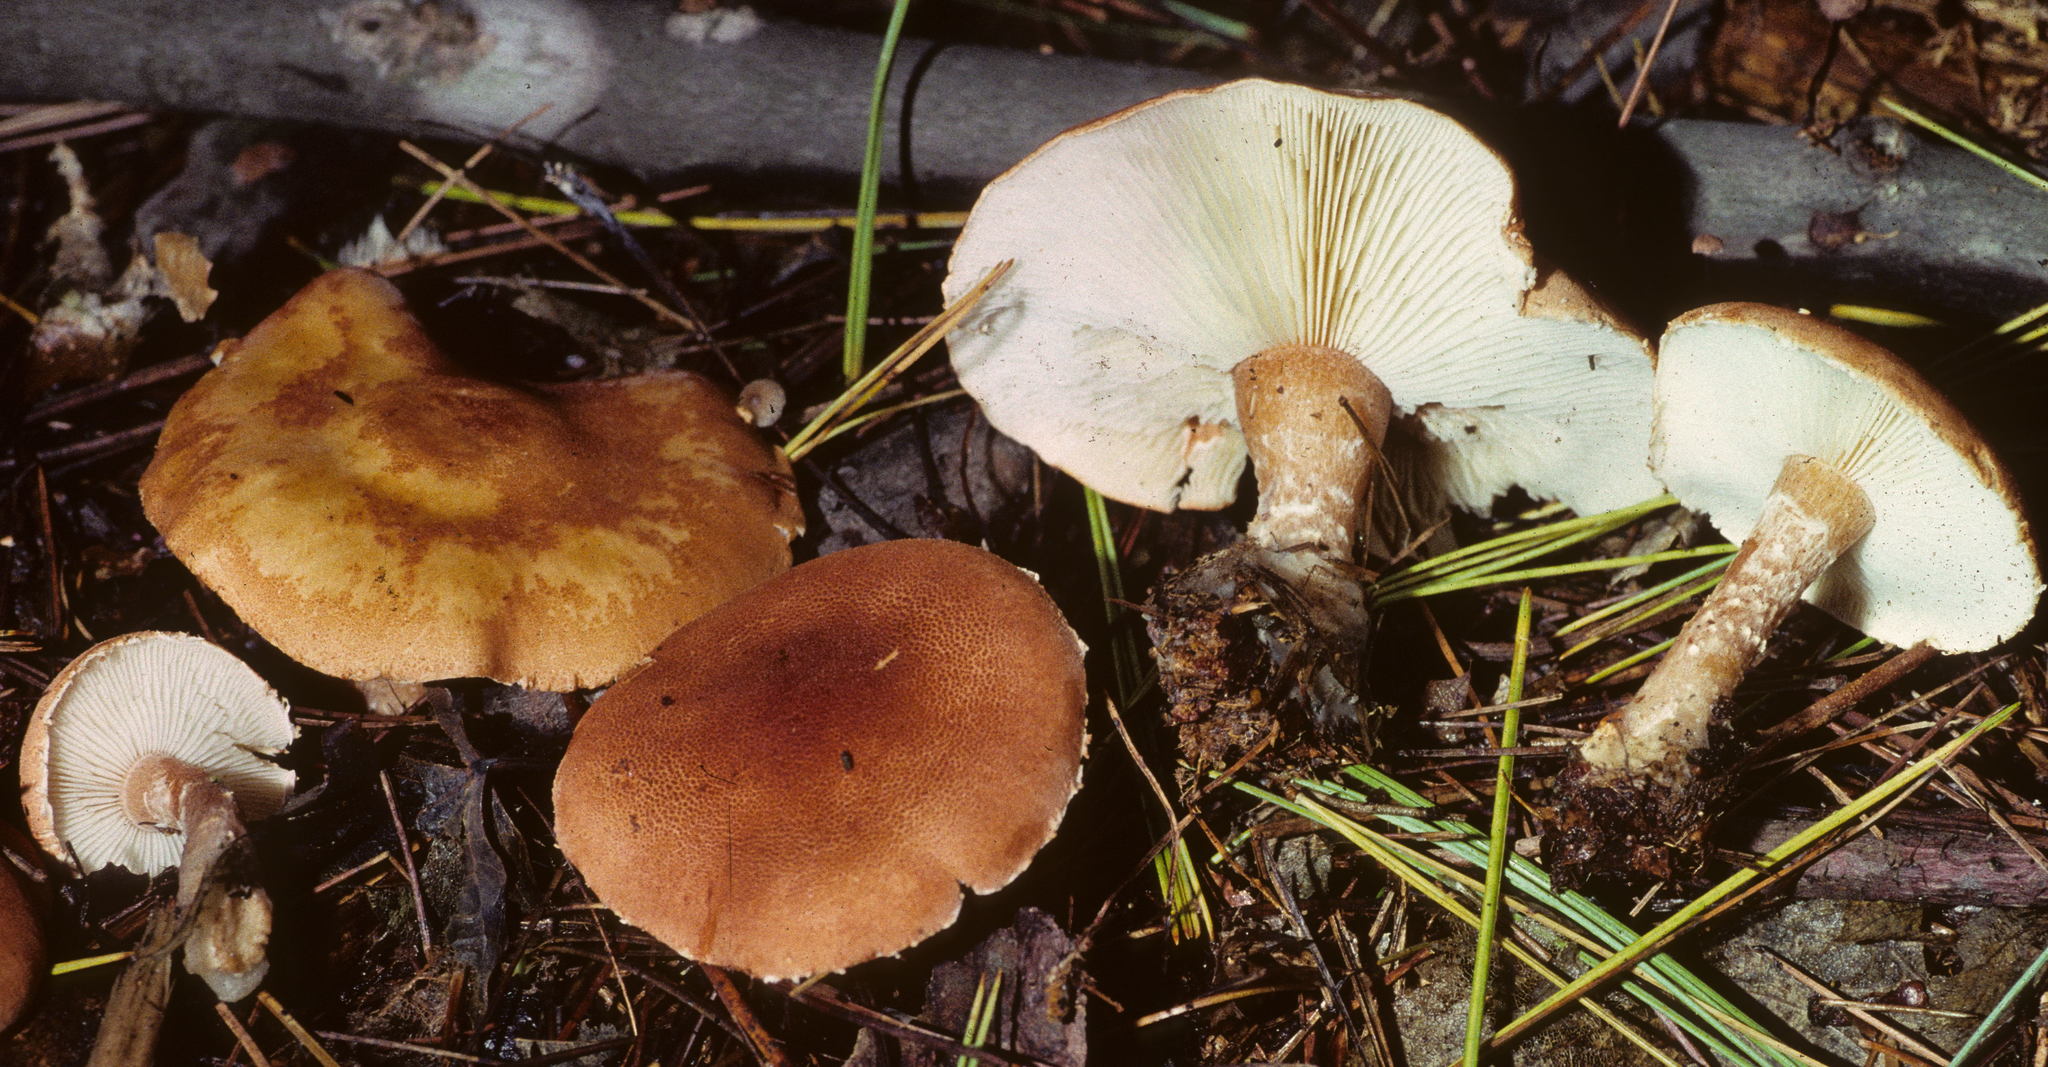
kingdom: Fungi
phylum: Basidiomycota
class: Agaricomycetes
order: Agaricales
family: Agaricaceae
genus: Cystodermella
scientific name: Cystodermella cinnabarina
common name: Cinnabar powdercap
